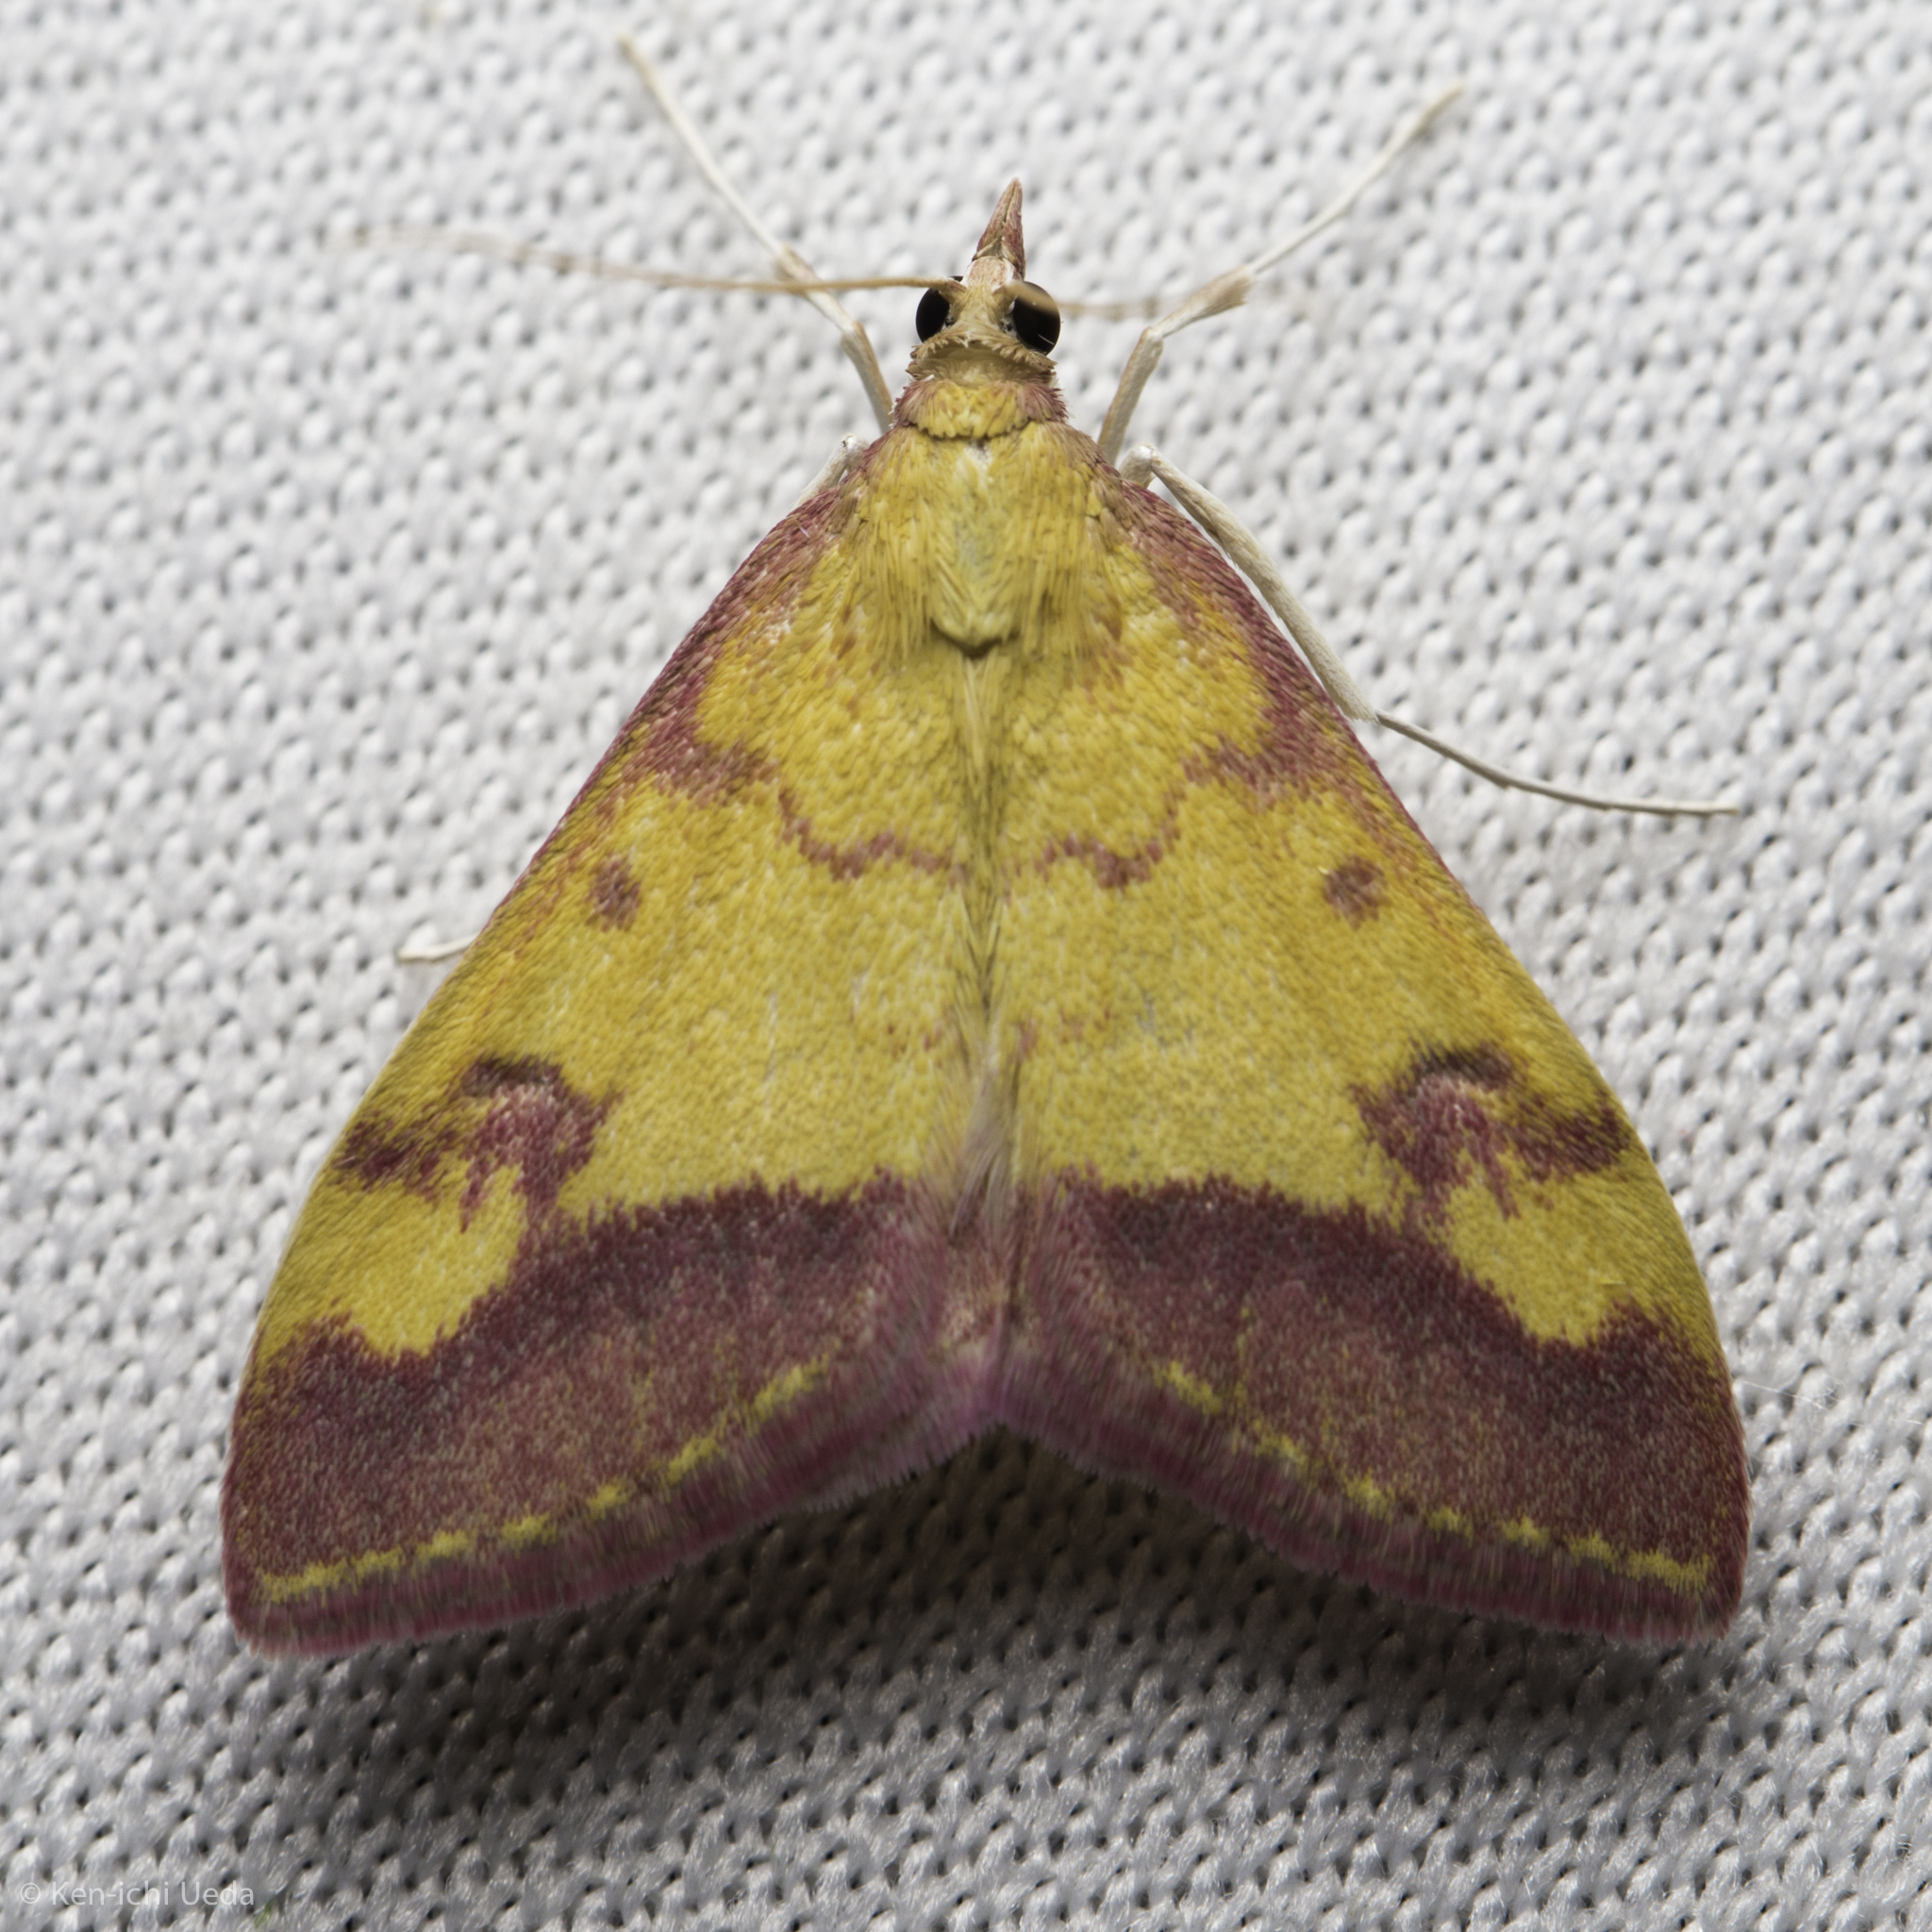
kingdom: Animalia
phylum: Arthropoda
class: Insecta
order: Lepidoptera
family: Crambidae
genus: Pyrausta
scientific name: Pyrausta perrubralis
